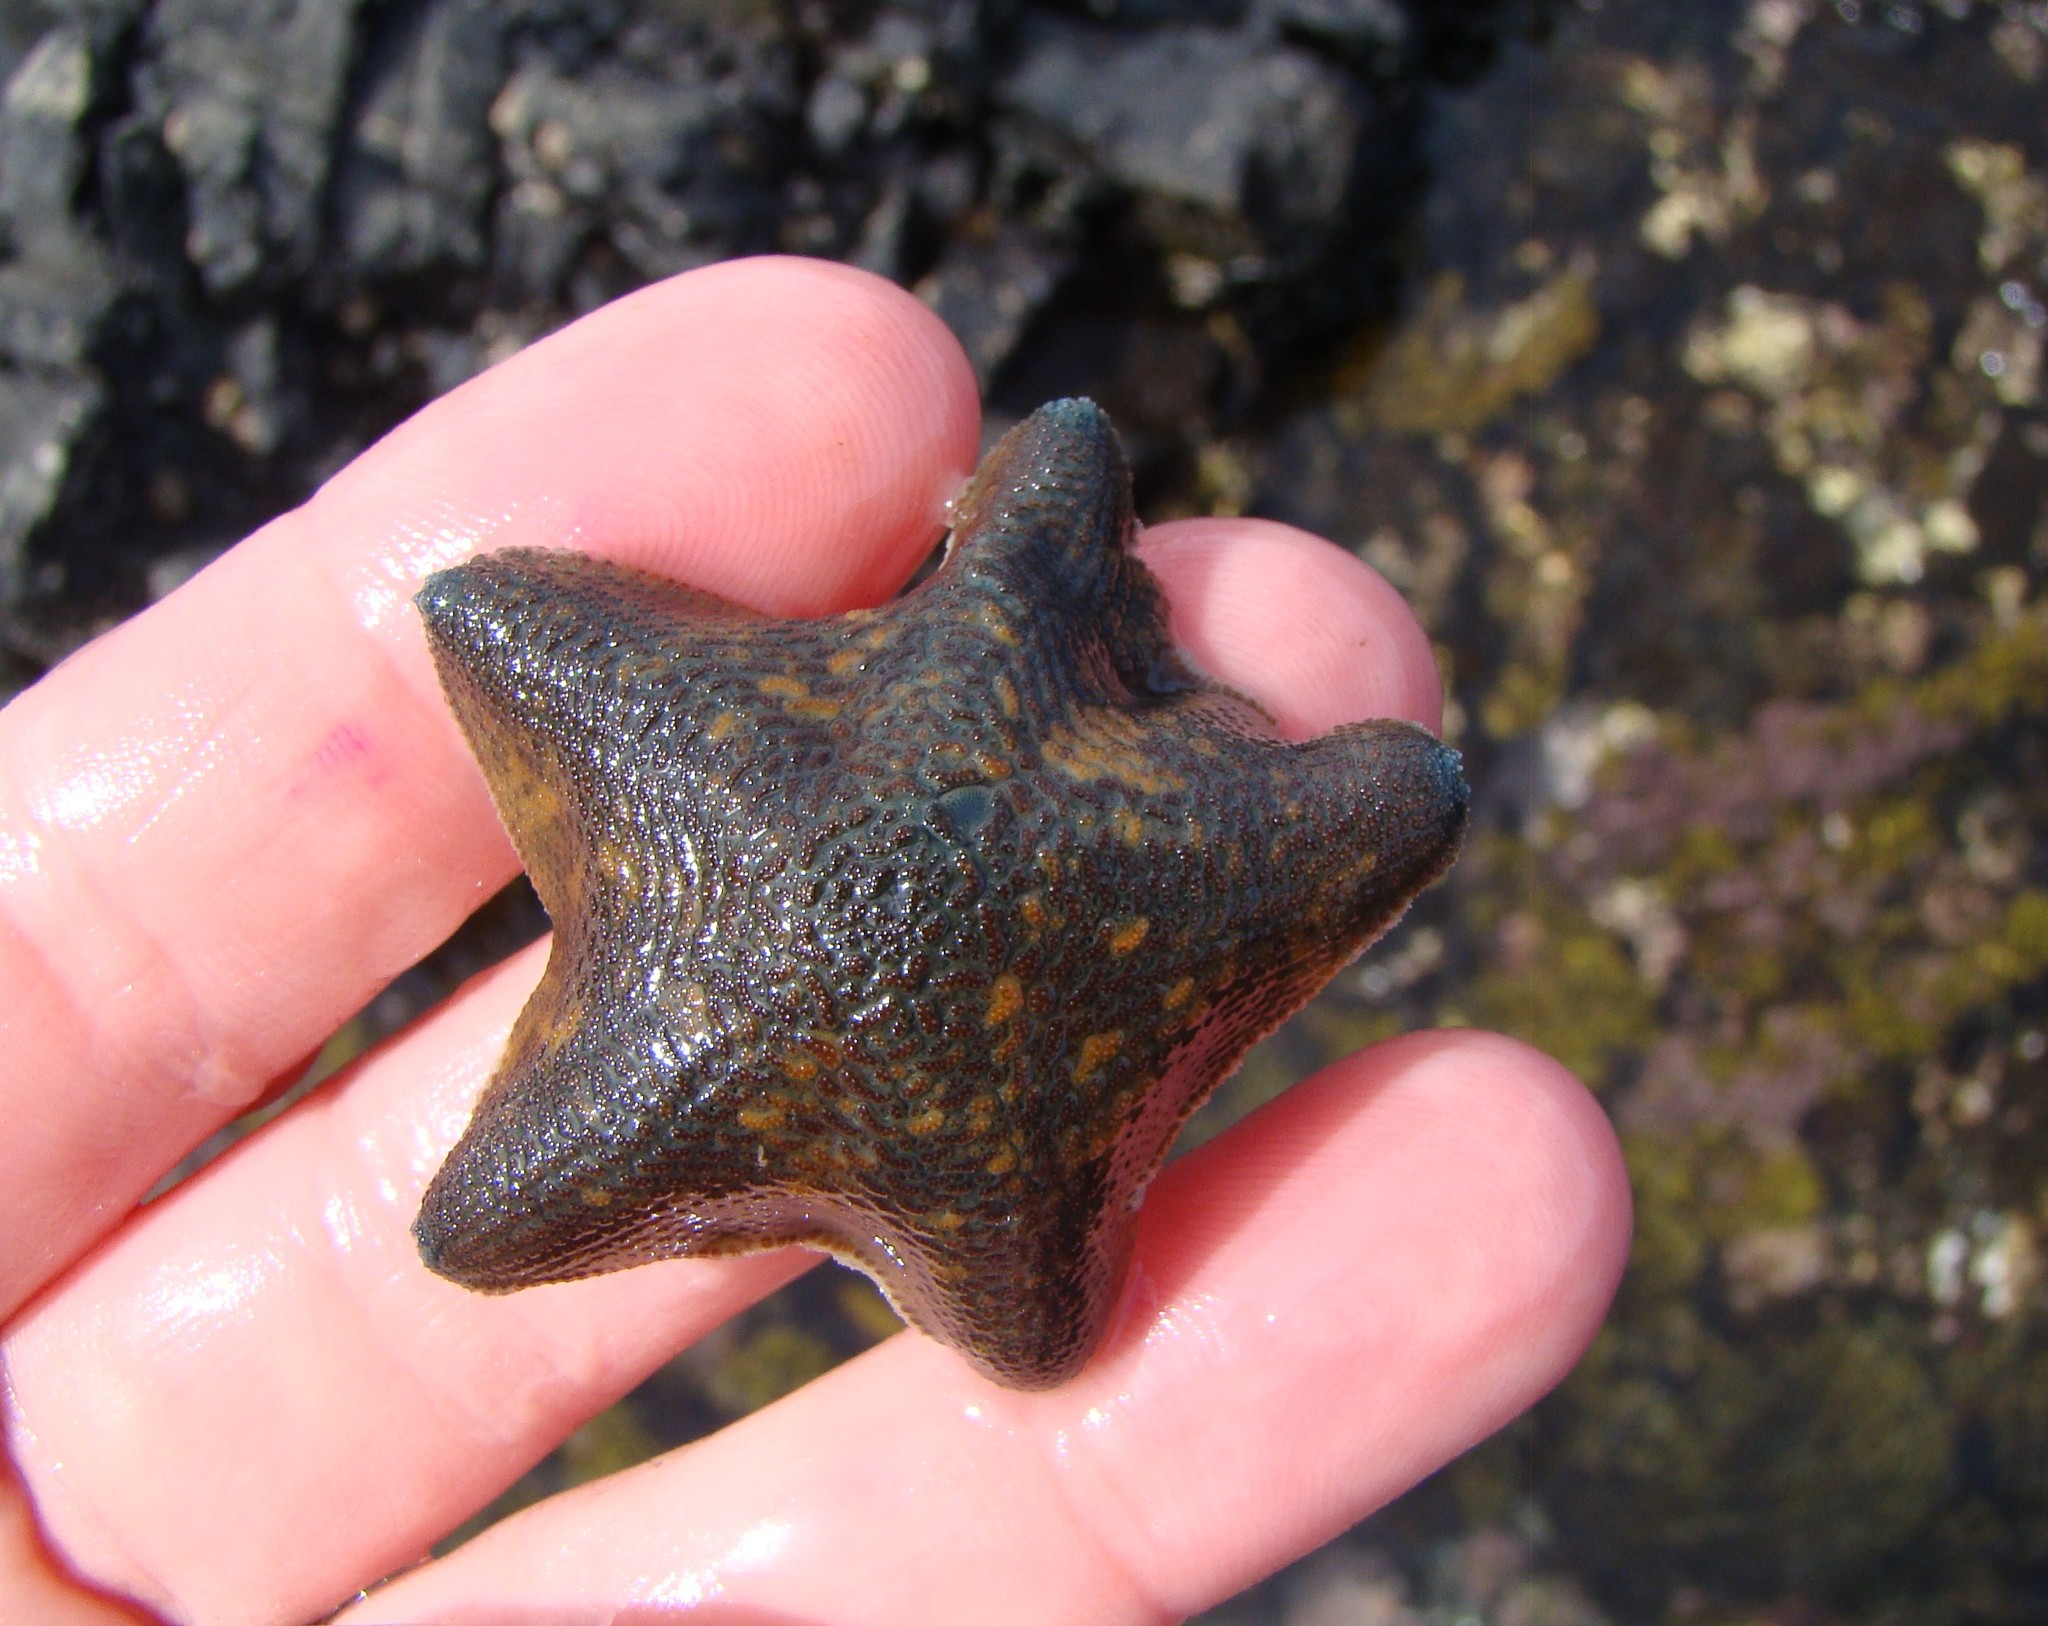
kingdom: Animalia
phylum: Echinodermata
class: Asteroidea
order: Valvatida
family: Asterinidae
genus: Patiriella
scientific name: Patiriella regularis
